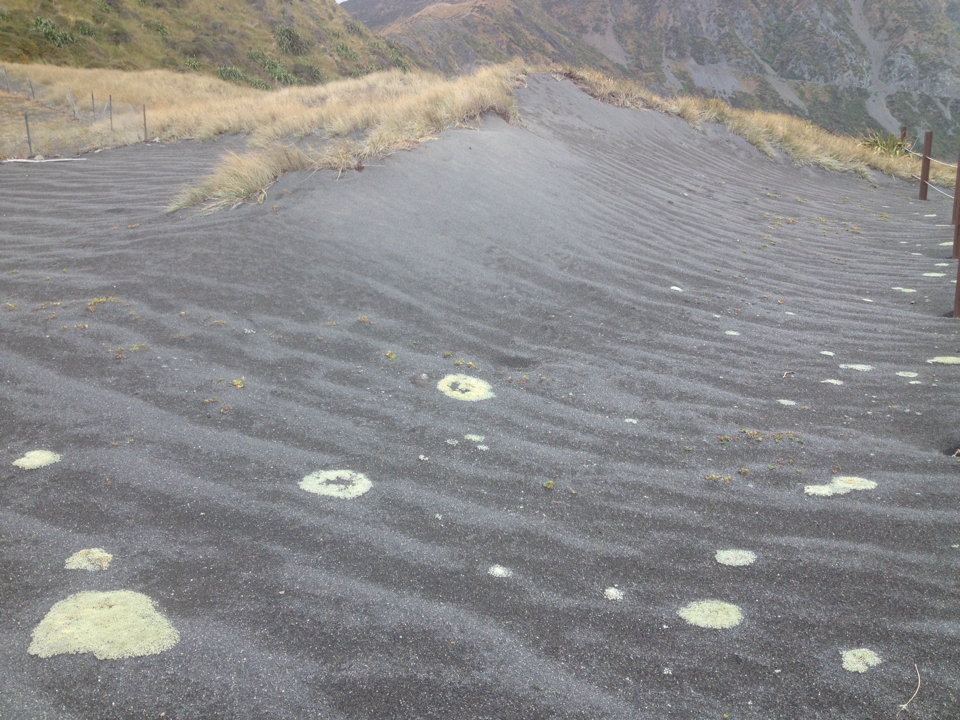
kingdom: Plantae
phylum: Tracheophyta
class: Magnoliopsida
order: Asterales
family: Asteraceae
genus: Raoulia
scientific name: Raoulia australis
